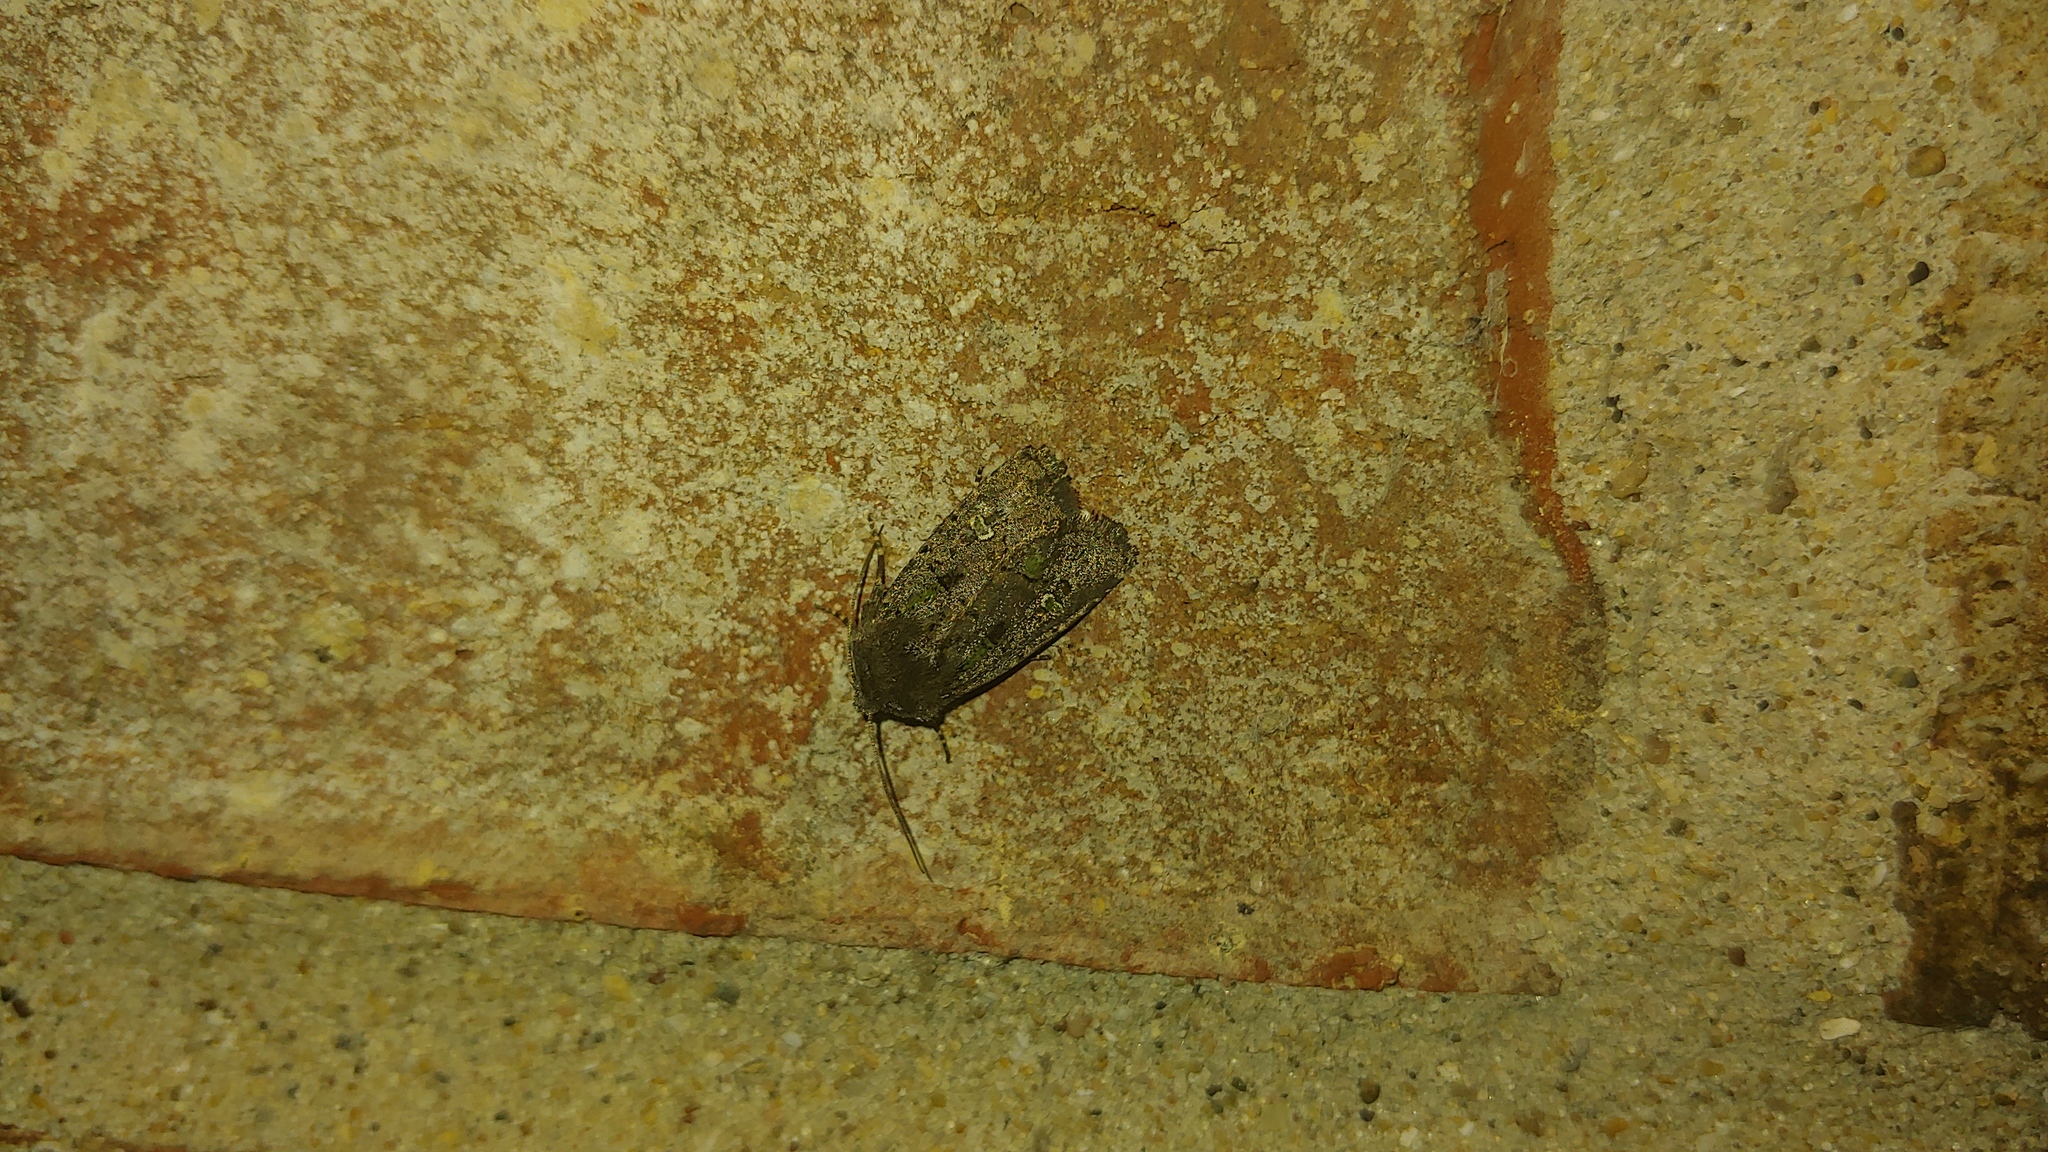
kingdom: Animalia
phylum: Arthropoda
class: Insecta
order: Lepidoptera
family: Noctuidae
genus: Lacinipolia
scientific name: Lacinipolia renigera
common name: Kidney-spotted minor
